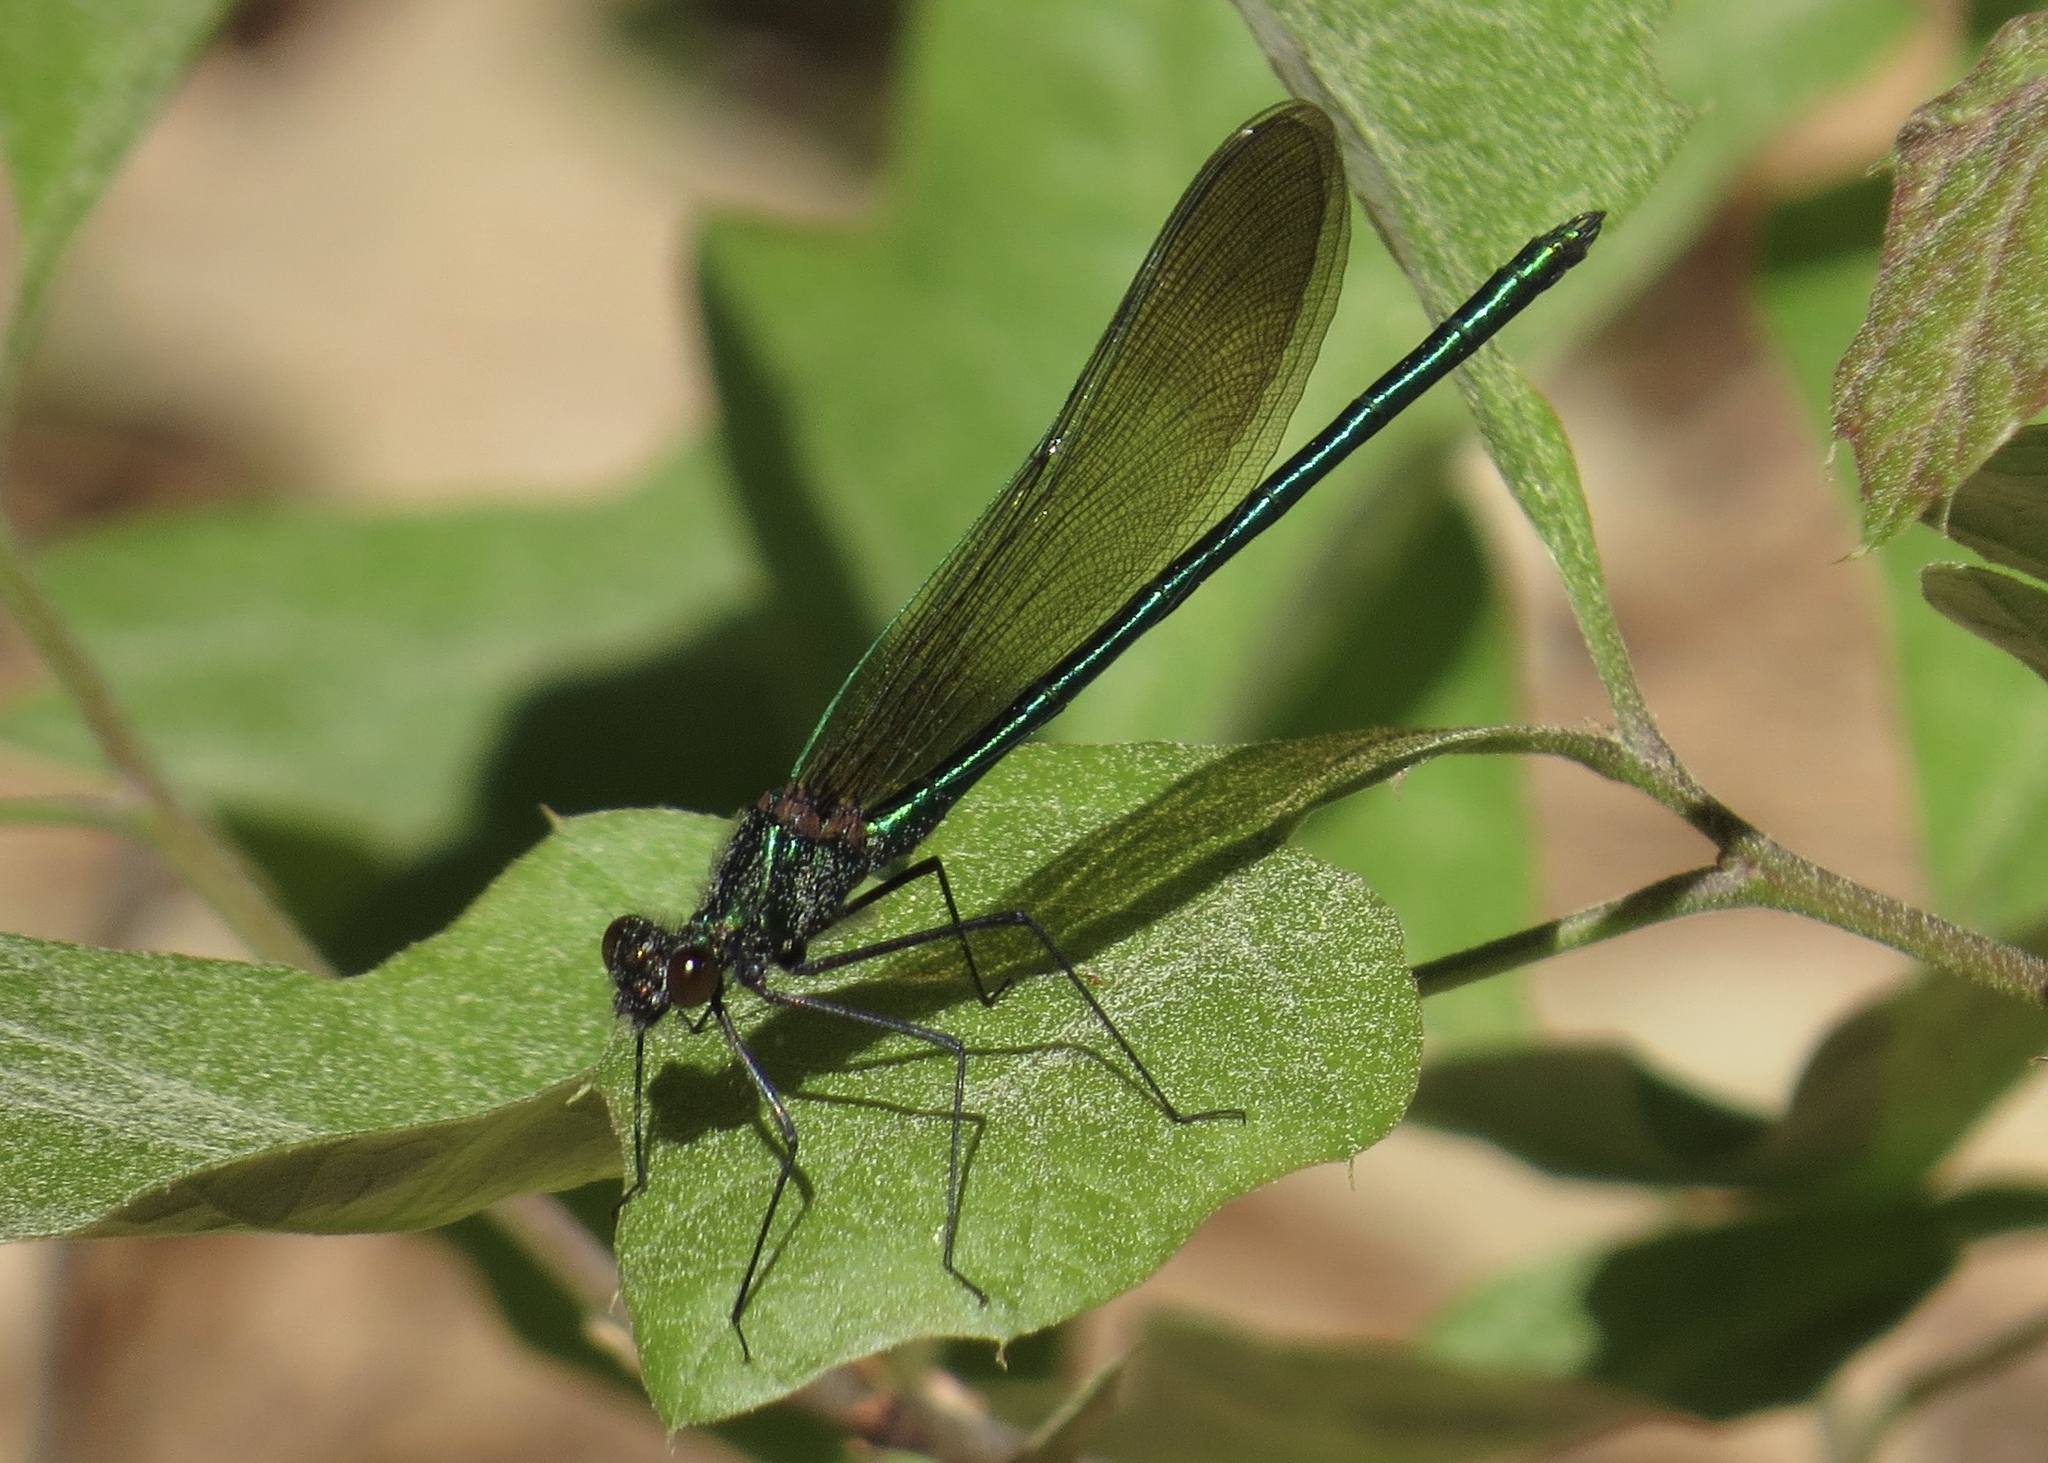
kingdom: Animalia
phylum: Arthropoda
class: Insecta
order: Odonata
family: Calopterygidae
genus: Calopteryx
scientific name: Calopteryx maculata
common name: Ebony jewelwing
